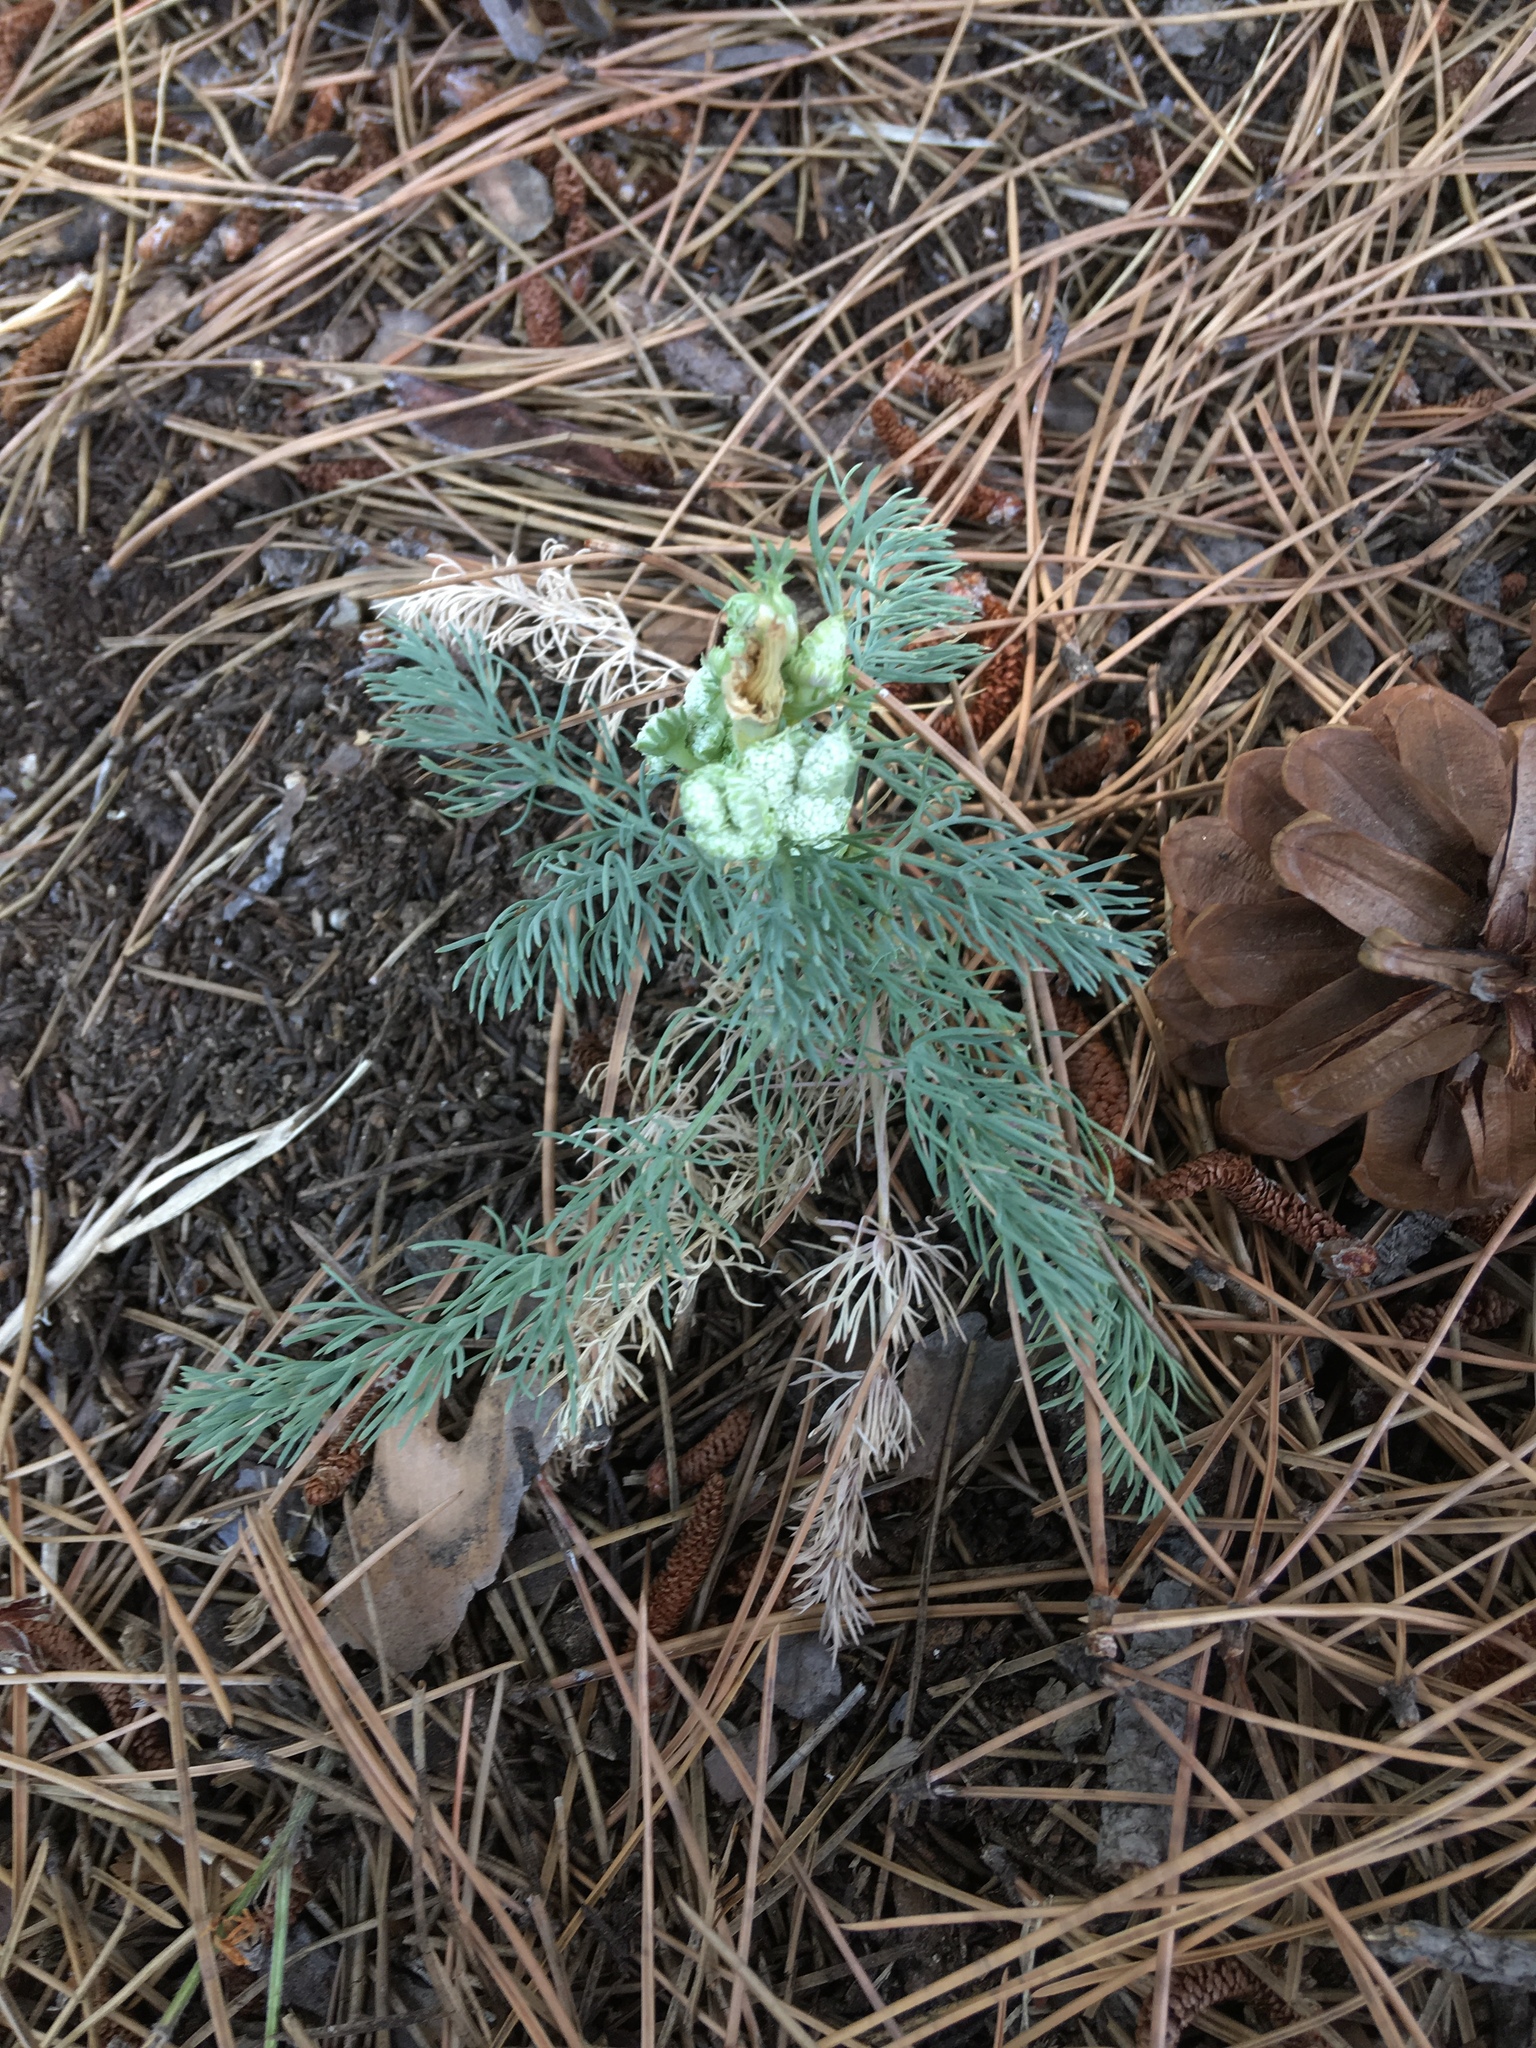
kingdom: Plantae
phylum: Tracheophyta
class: Magnoliopsida
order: Apiales
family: Apiaceae
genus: Seseli
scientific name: Seseli dichotomum
